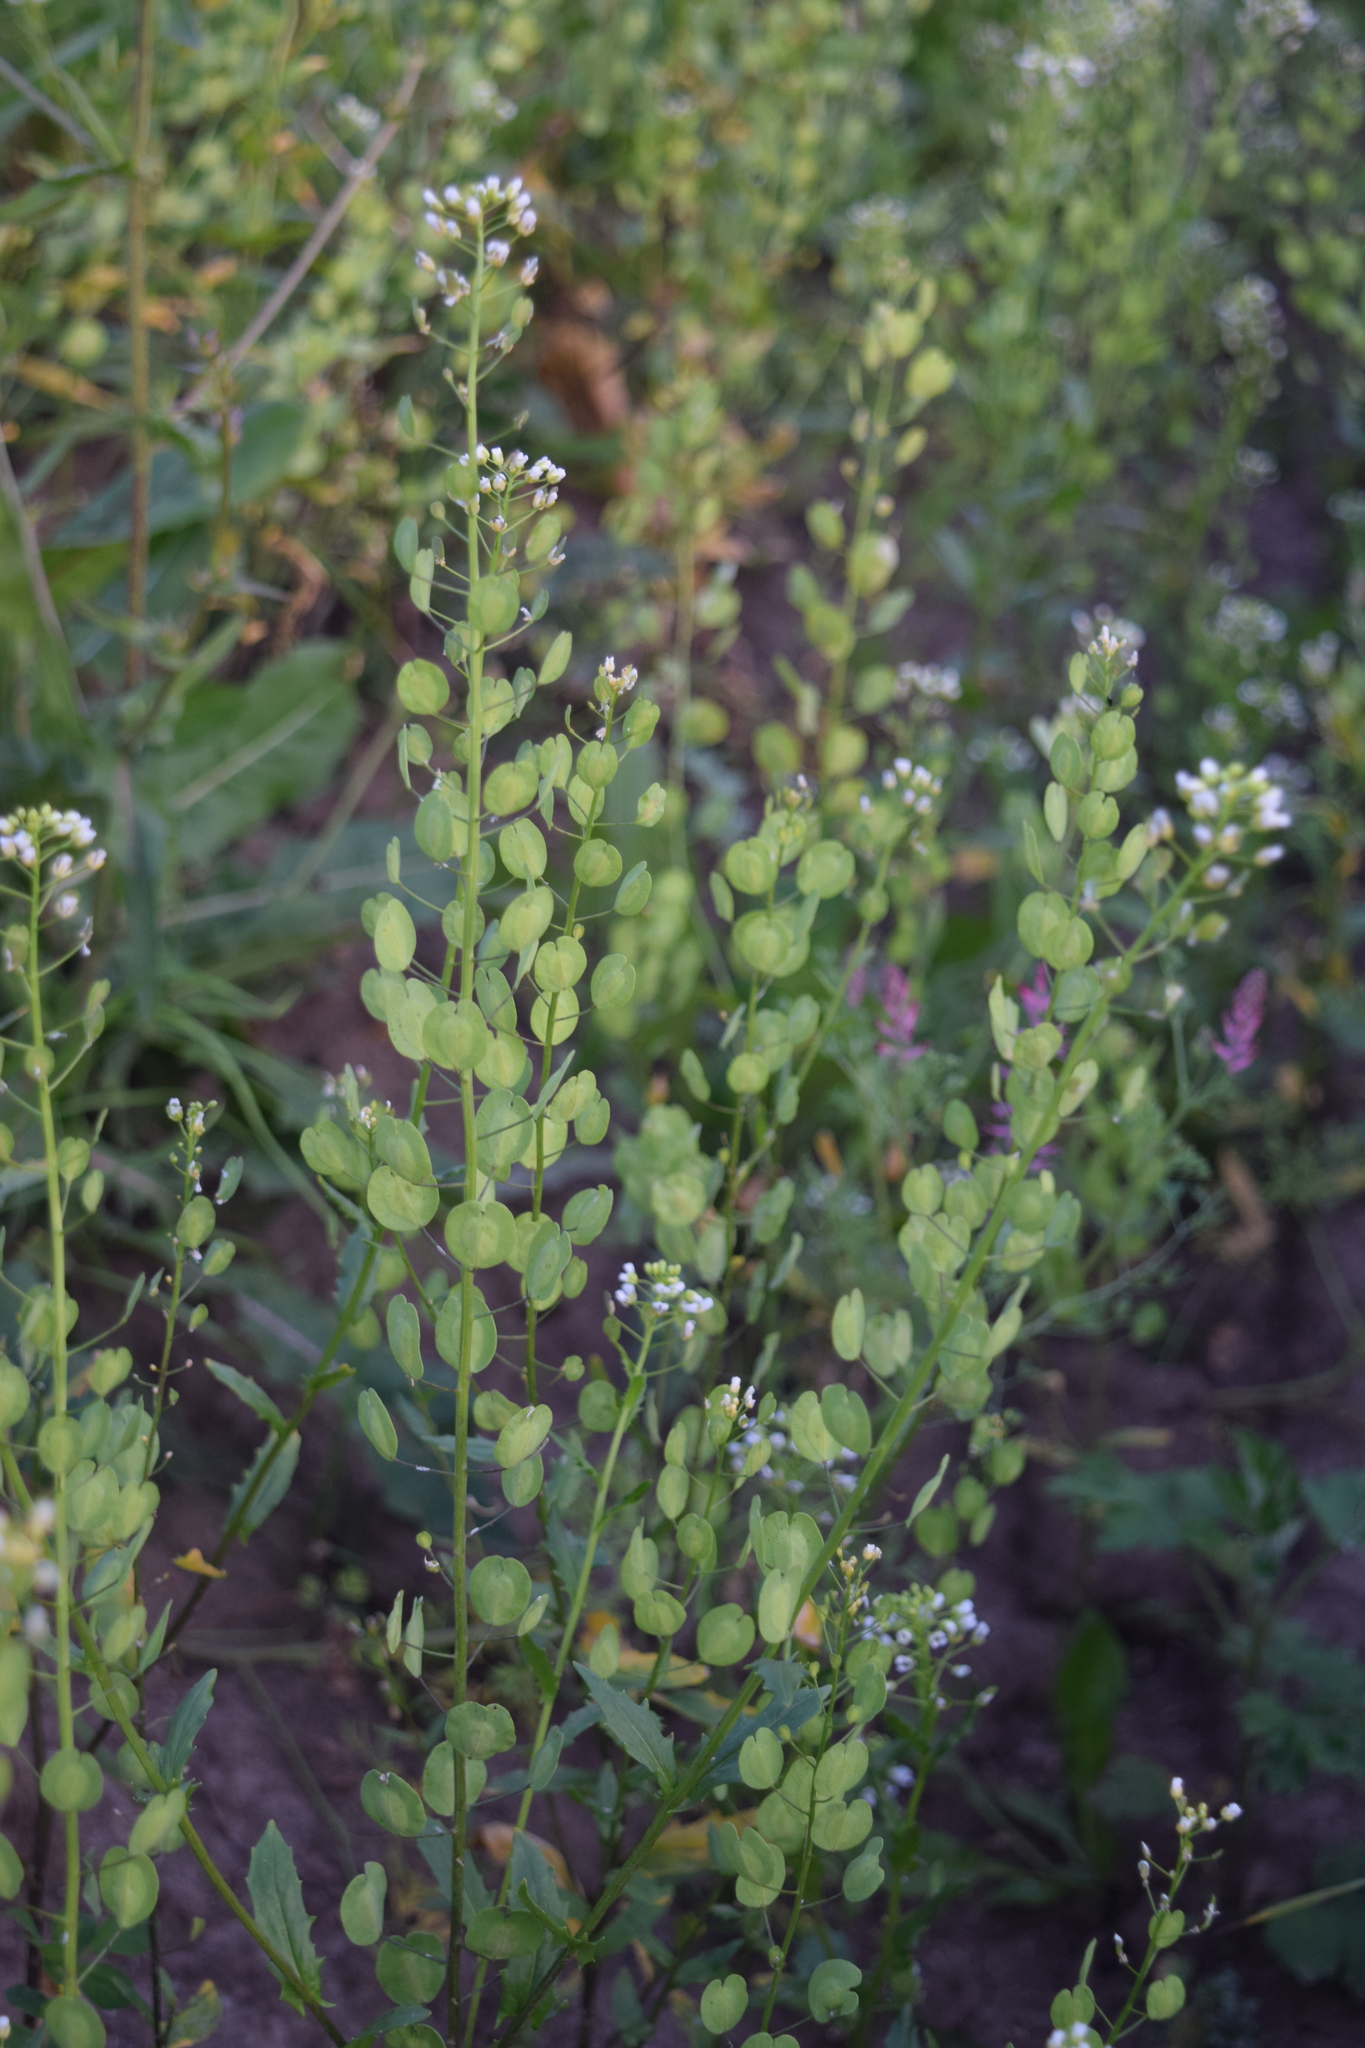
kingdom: Plantae
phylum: Tracheophyta
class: Magnoliopsida
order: Brassicales
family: Brassicaceae
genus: Thlaspi
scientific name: Thlaspi arvense
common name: Field pennycress
